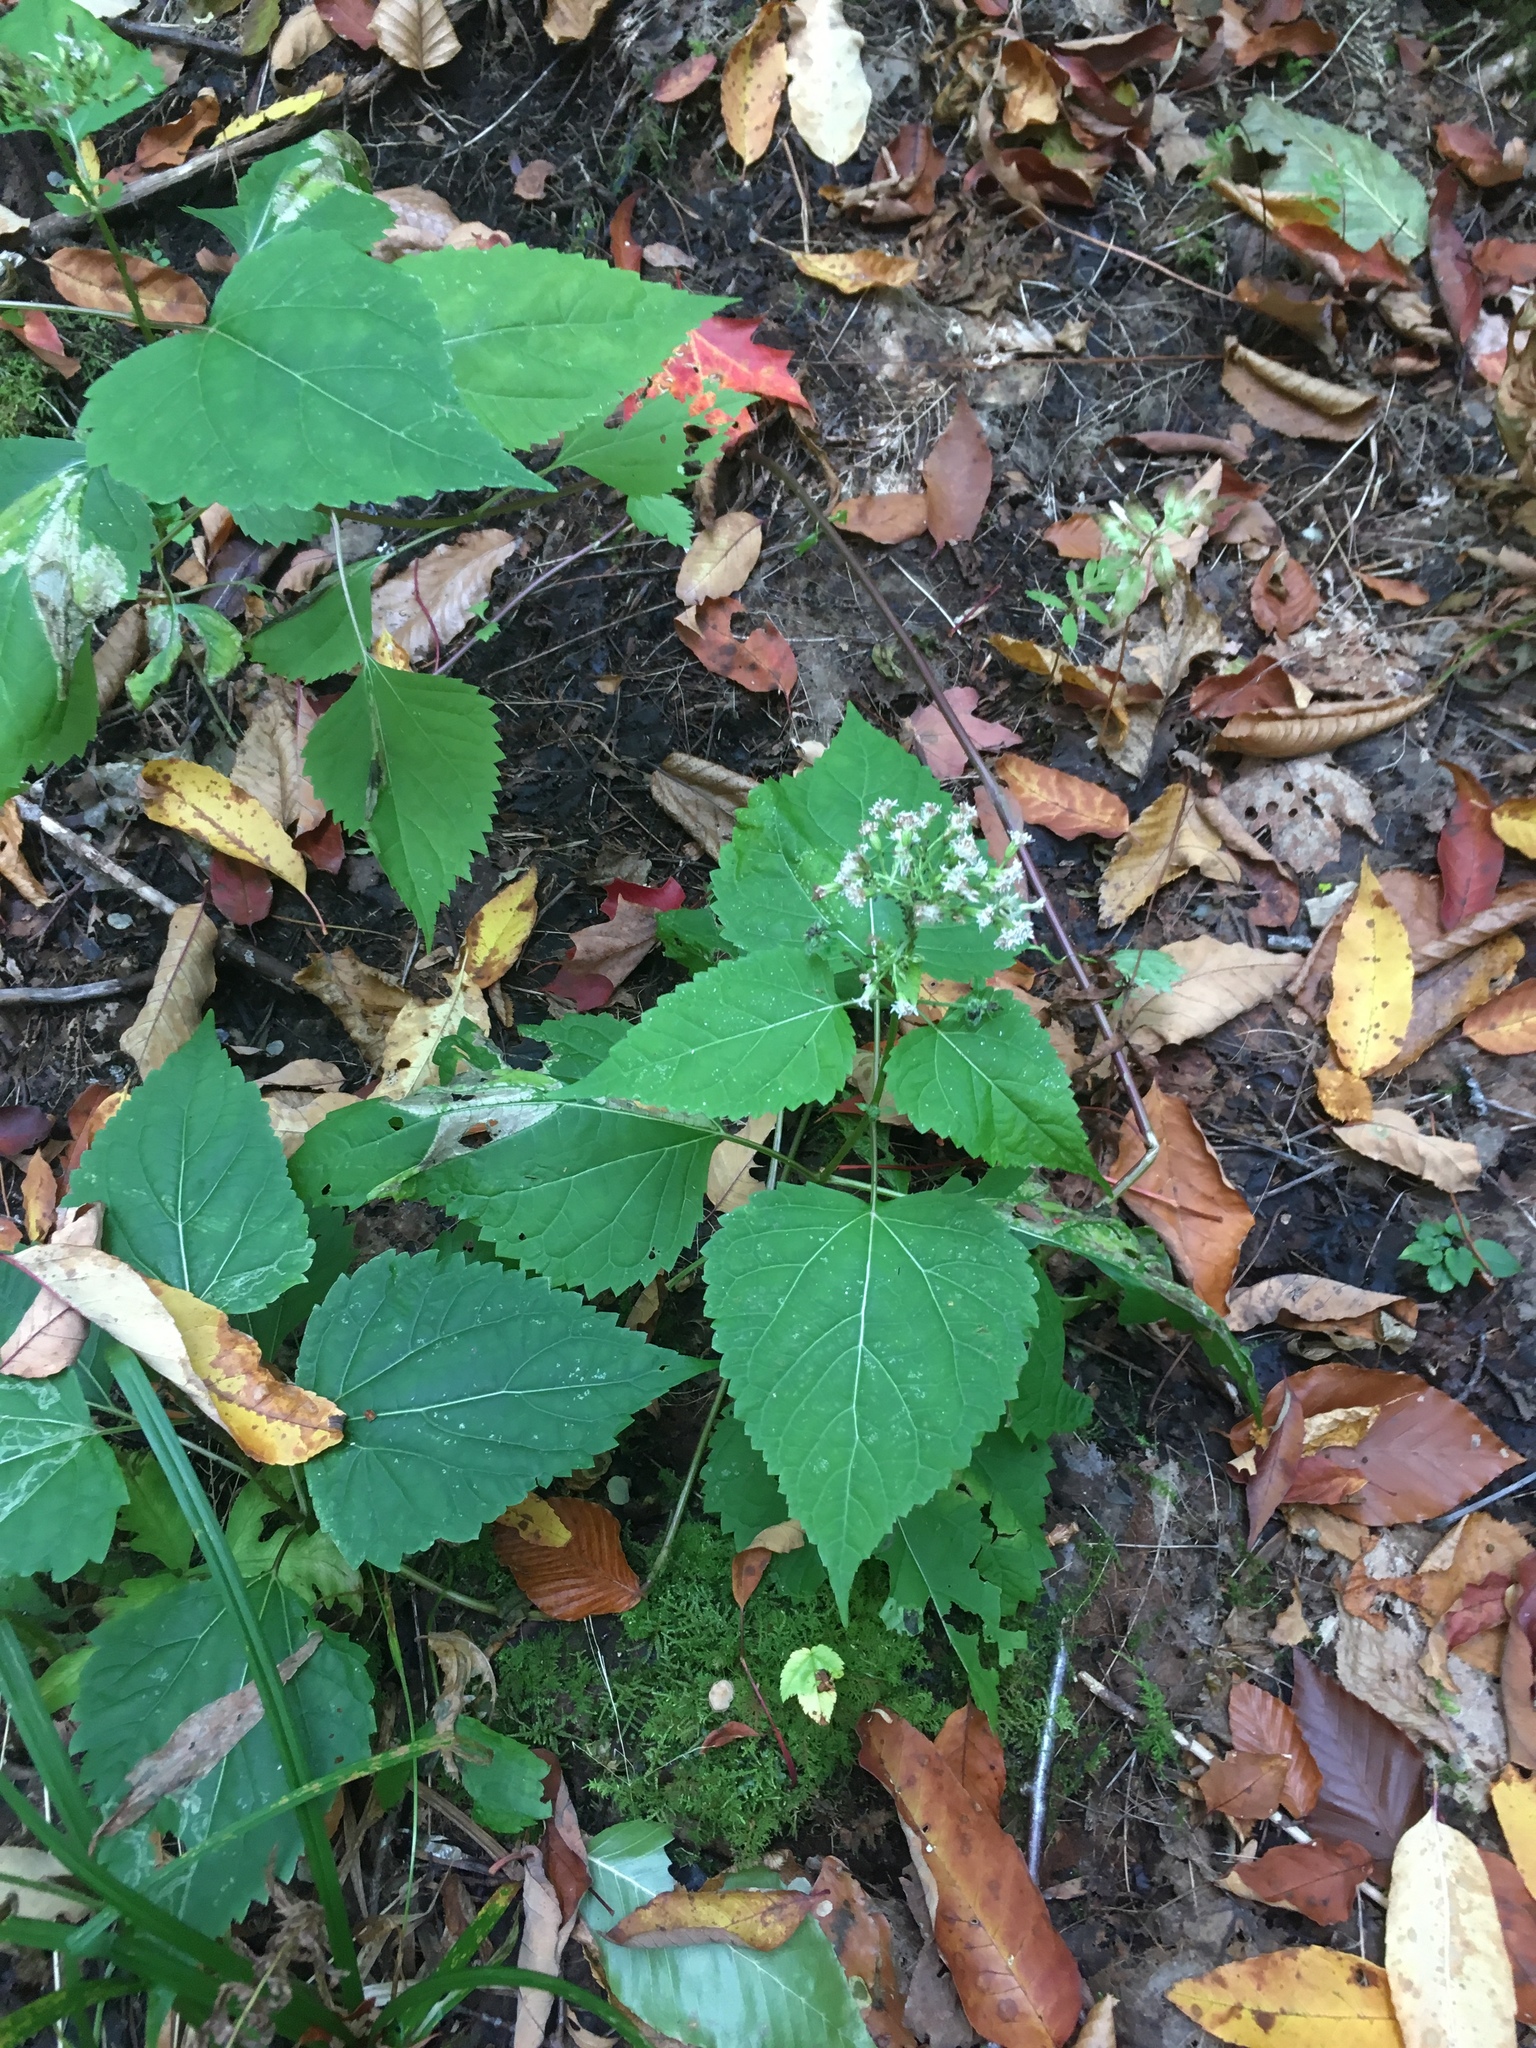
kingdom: Plantae
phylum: Tracheophyta
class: Magnoliopsida
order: Asterales
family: Asteraceae
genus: Ageratina
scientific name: Ageratina altissima
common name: White snakeroot
